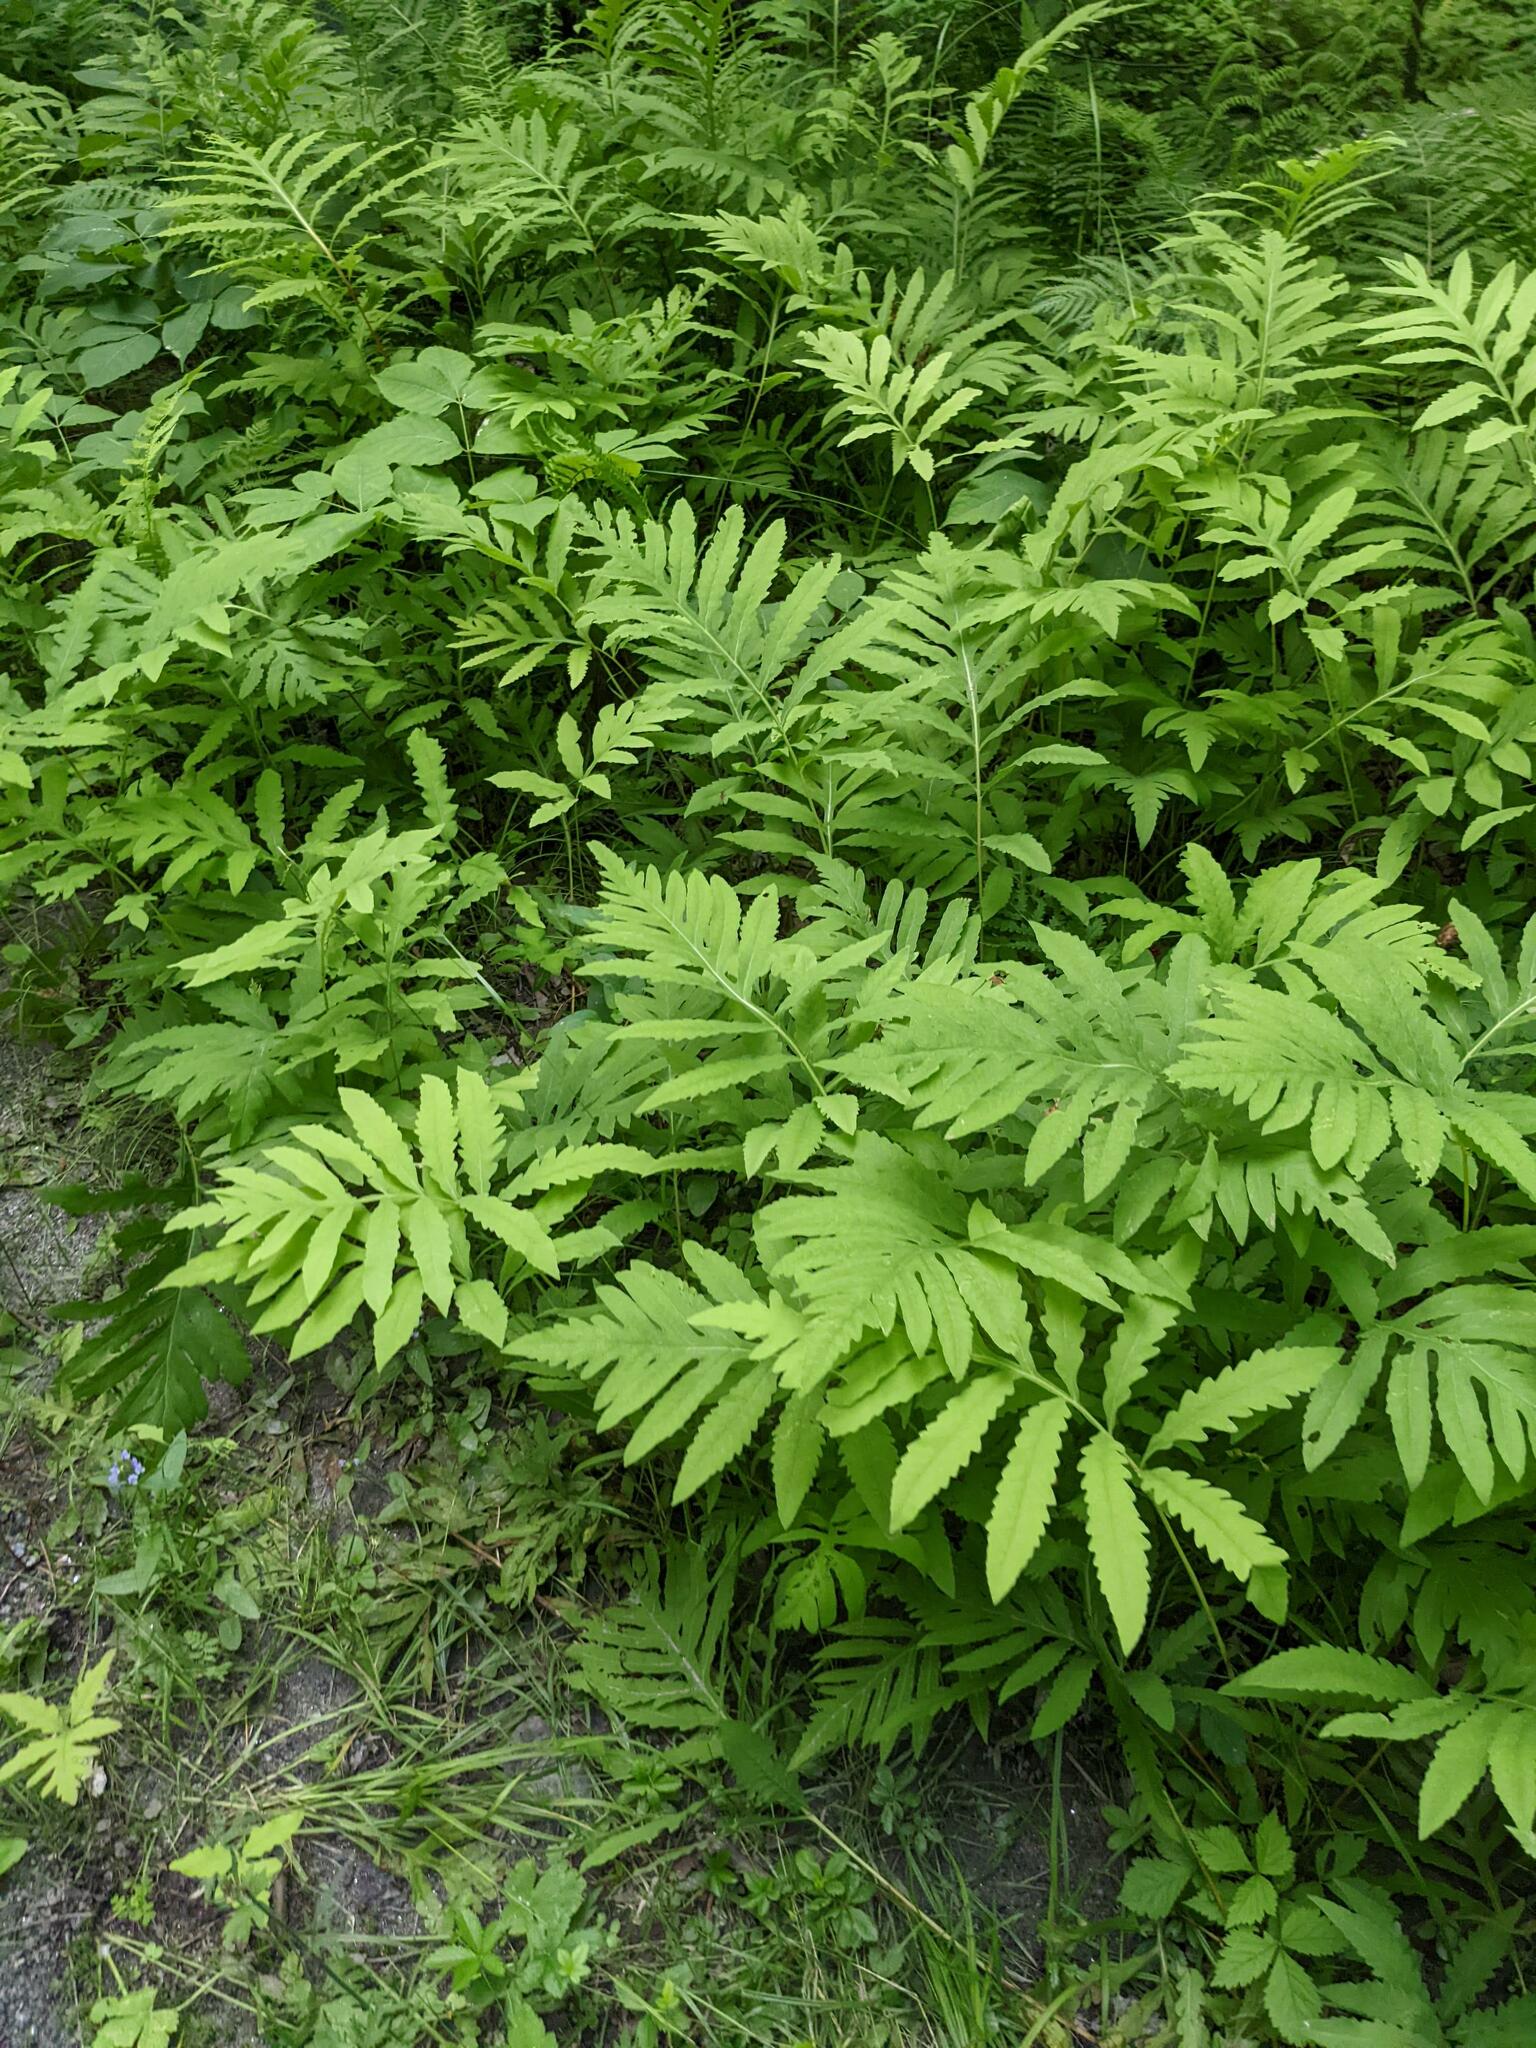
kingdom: Plantae
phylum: Tracheophyta
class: Polypodiopsida
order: Polypodiales
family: Onocleaceae
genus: Onoclea
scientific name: Onoclea sensibilis
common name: Sensitive fern
